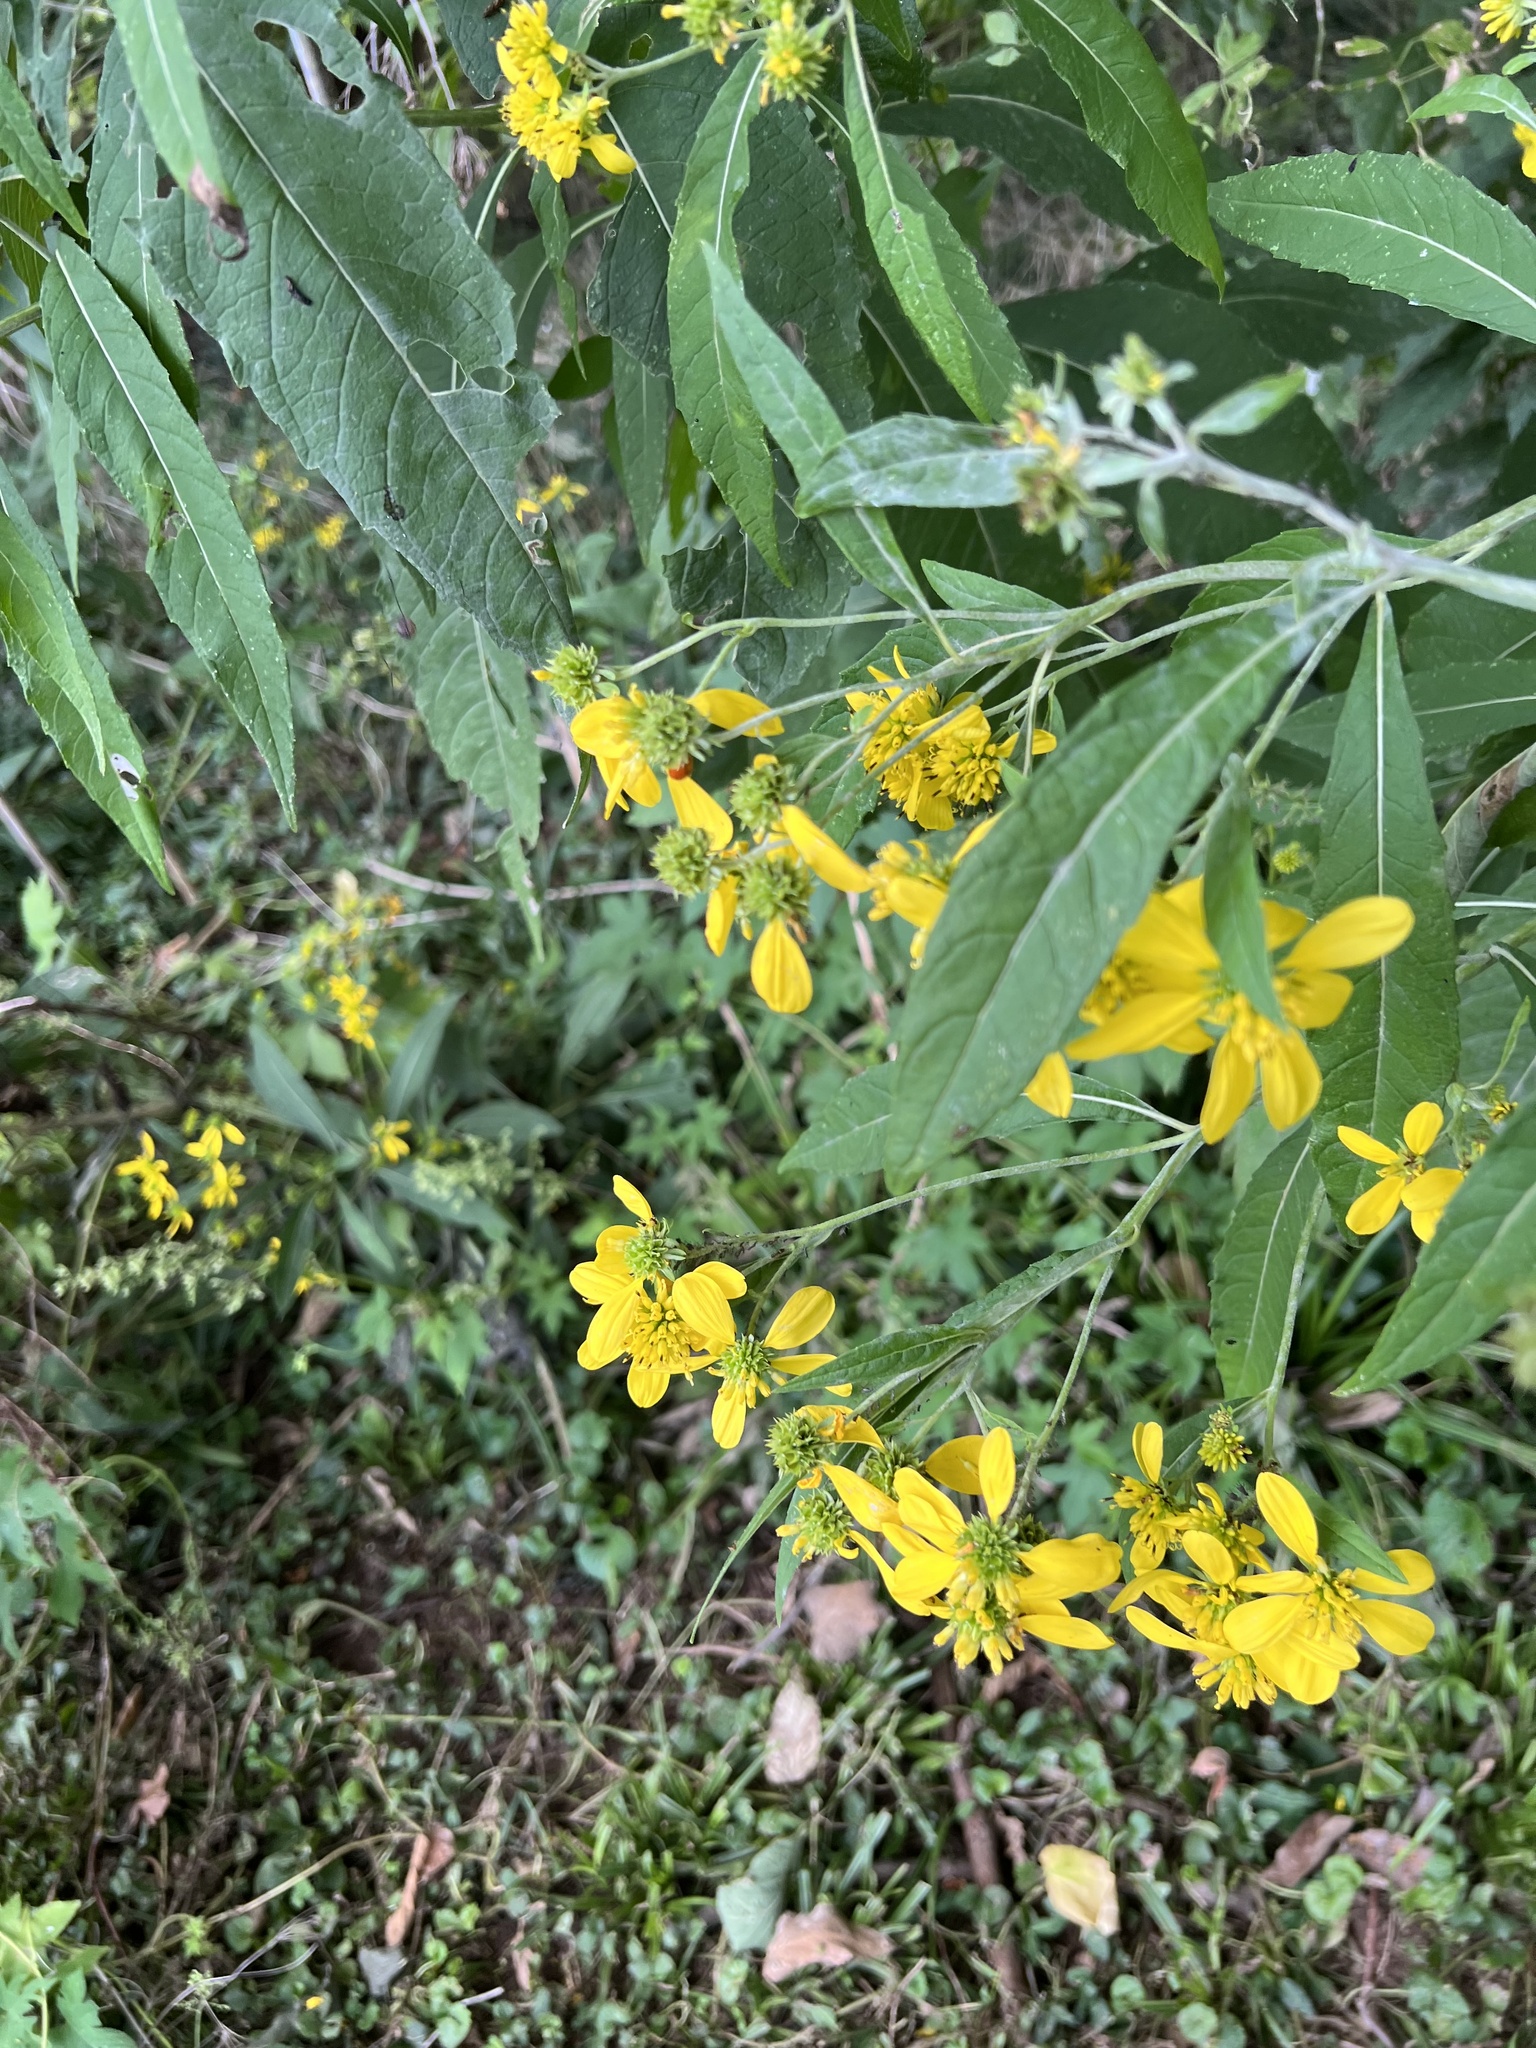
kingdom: Plantae
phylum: Tracheophyta
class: Magnoliopsida
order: Asterales
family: Asteraceae
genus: Verbesina
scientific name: Verbesina alternifolia
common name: Wingstem
